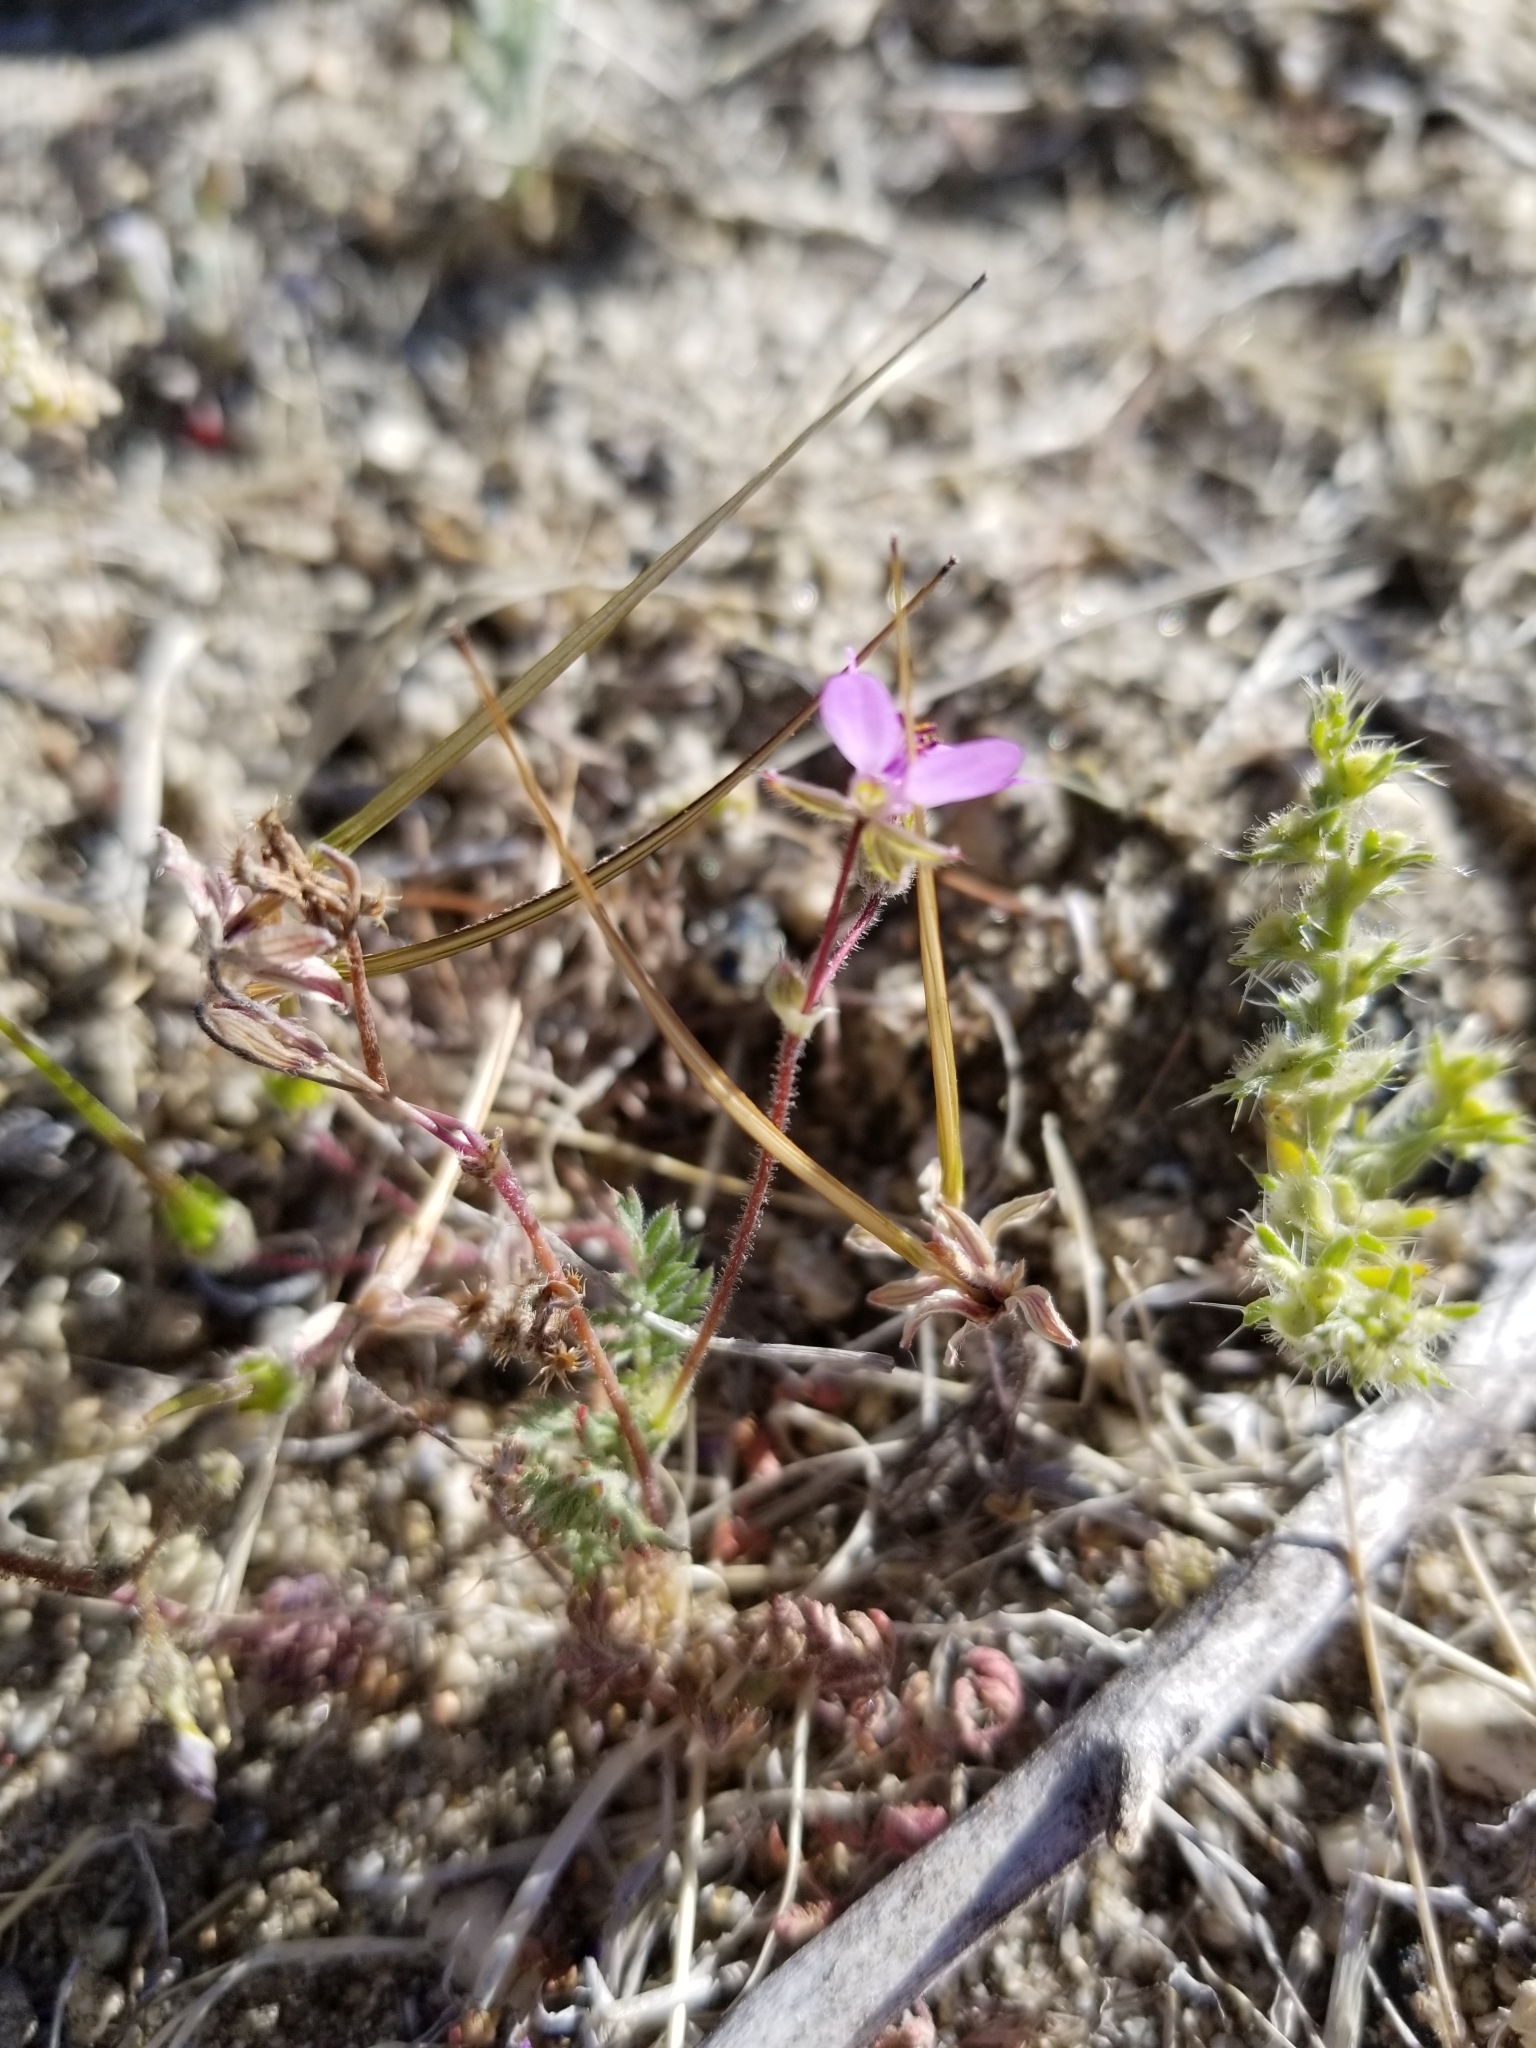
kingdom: Plantae
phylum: Tracheophyta
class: Magnoliopsida
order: Geraniales
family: Geraniaceae
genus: Erodium
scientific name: Erodium cicutarium
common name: Common stork's-bill
